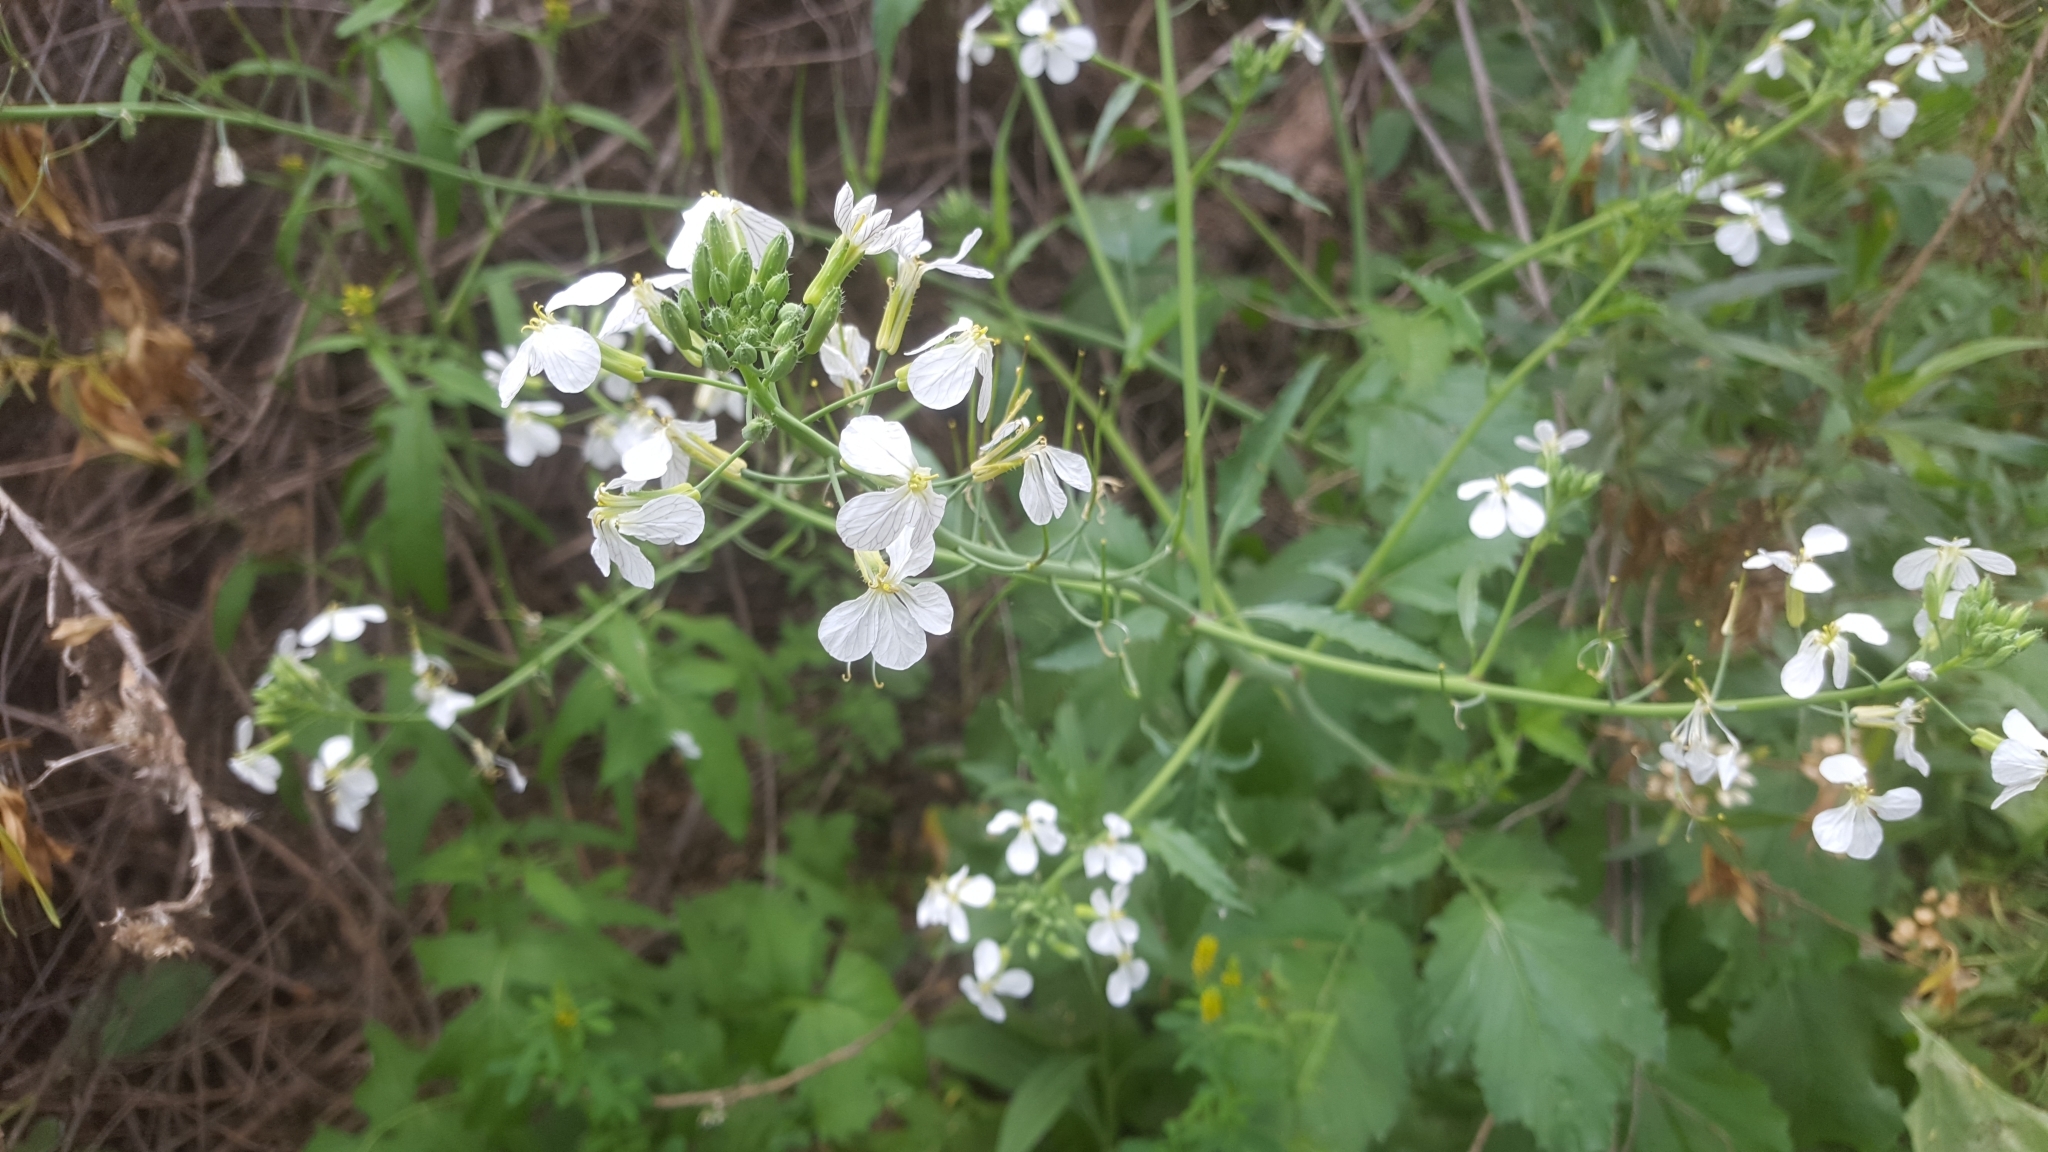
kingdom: Plantae
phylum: Tracheophyta
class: Magnoliopsida
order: Brassicales
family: Brassicaceae
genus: Raphanus
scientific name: Raphanus sativus
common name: Cultivated radish
